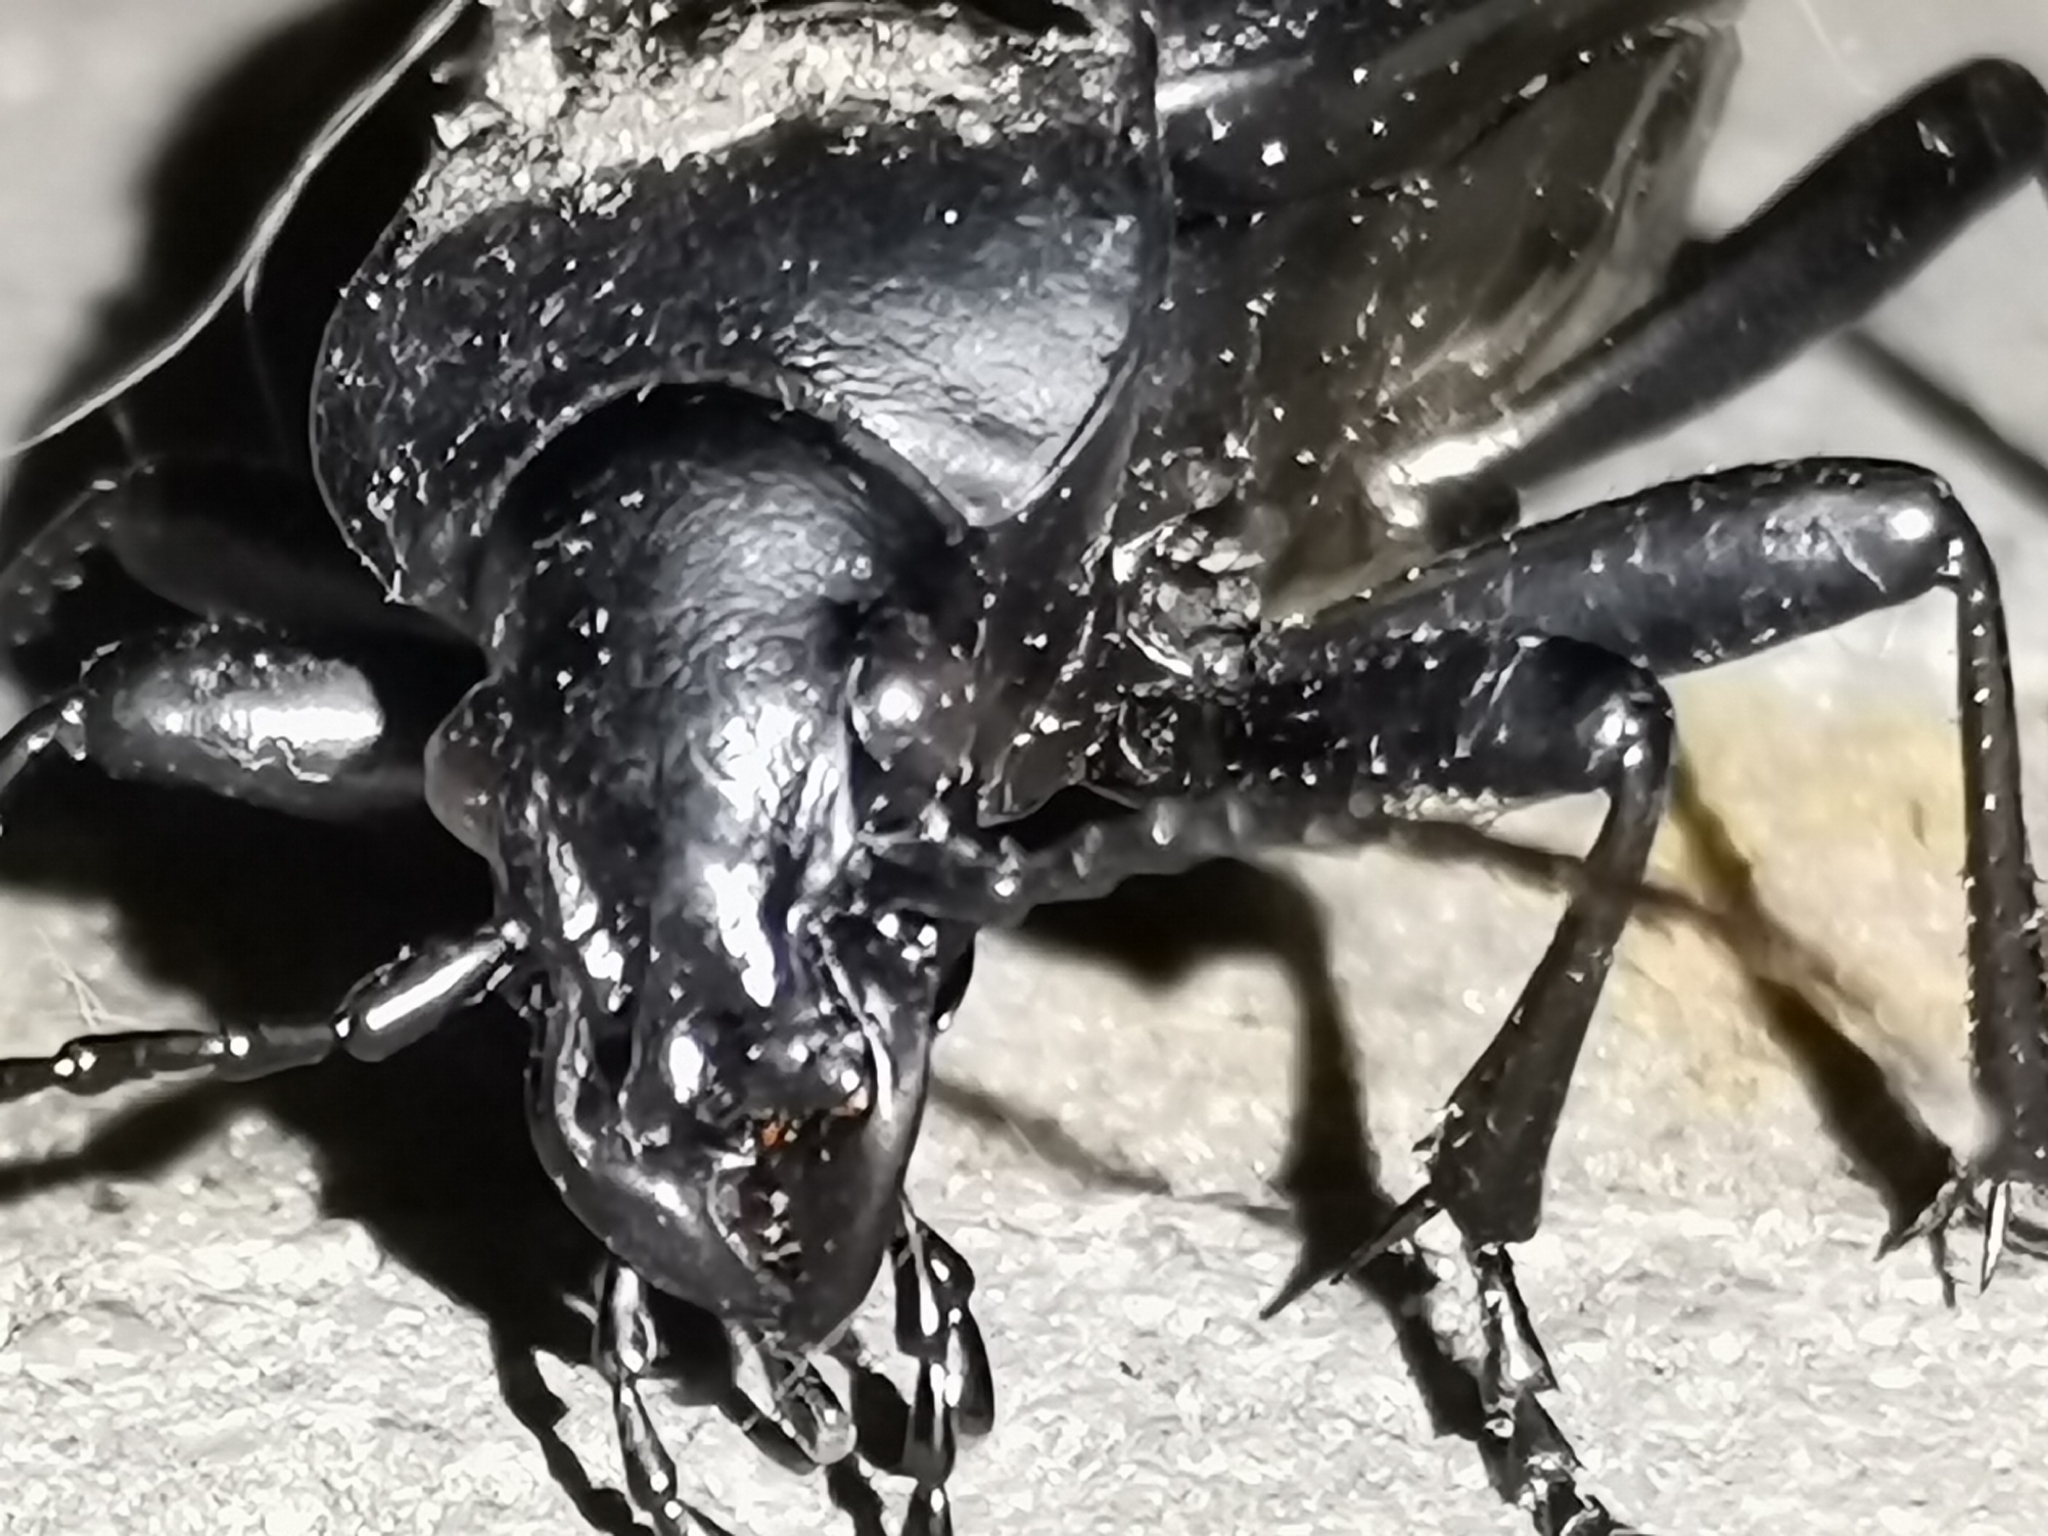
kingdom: Animalia
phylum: Arthropoda
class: Insecta
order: Coleoptera
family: Carabidae
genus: Carabus
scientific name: Carabus coriaceus
